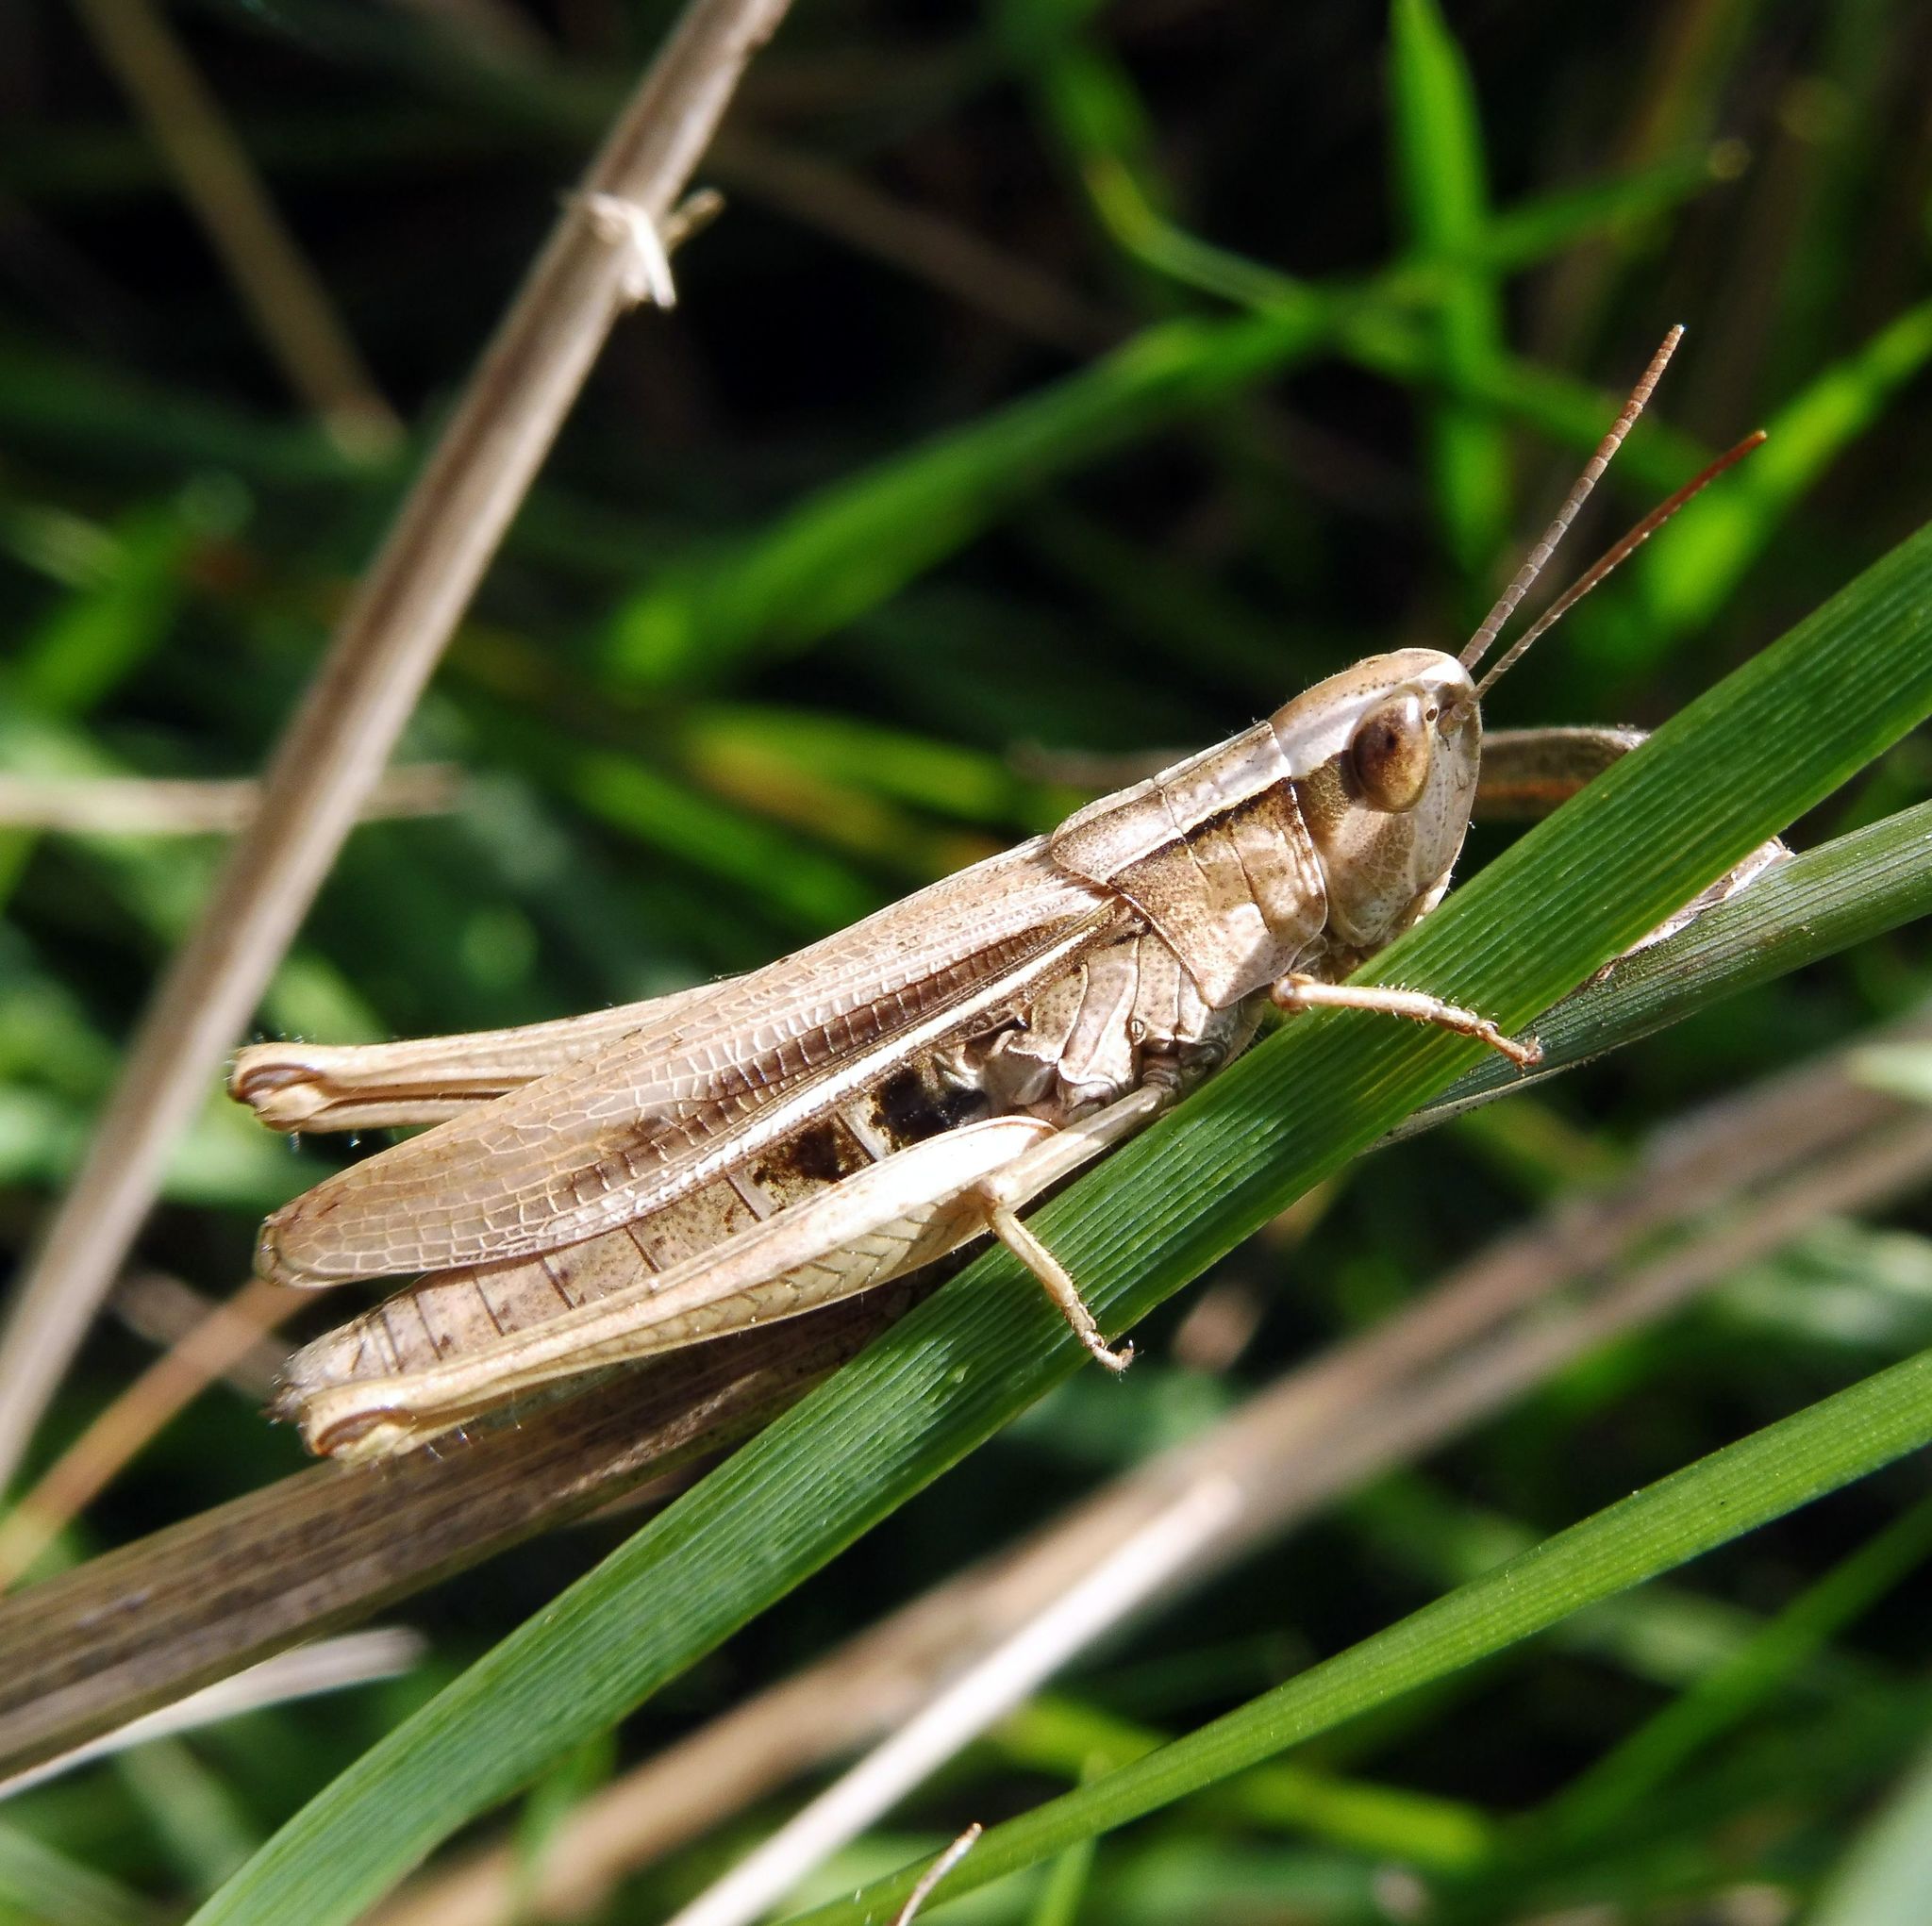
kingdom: Animalia
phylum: Arthropoda
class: Insecta
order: Orthoptera
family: Acrididae
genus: Chorthippus
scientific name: Chorthippus albomarginatus
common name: Lesser marsh grasshopper
